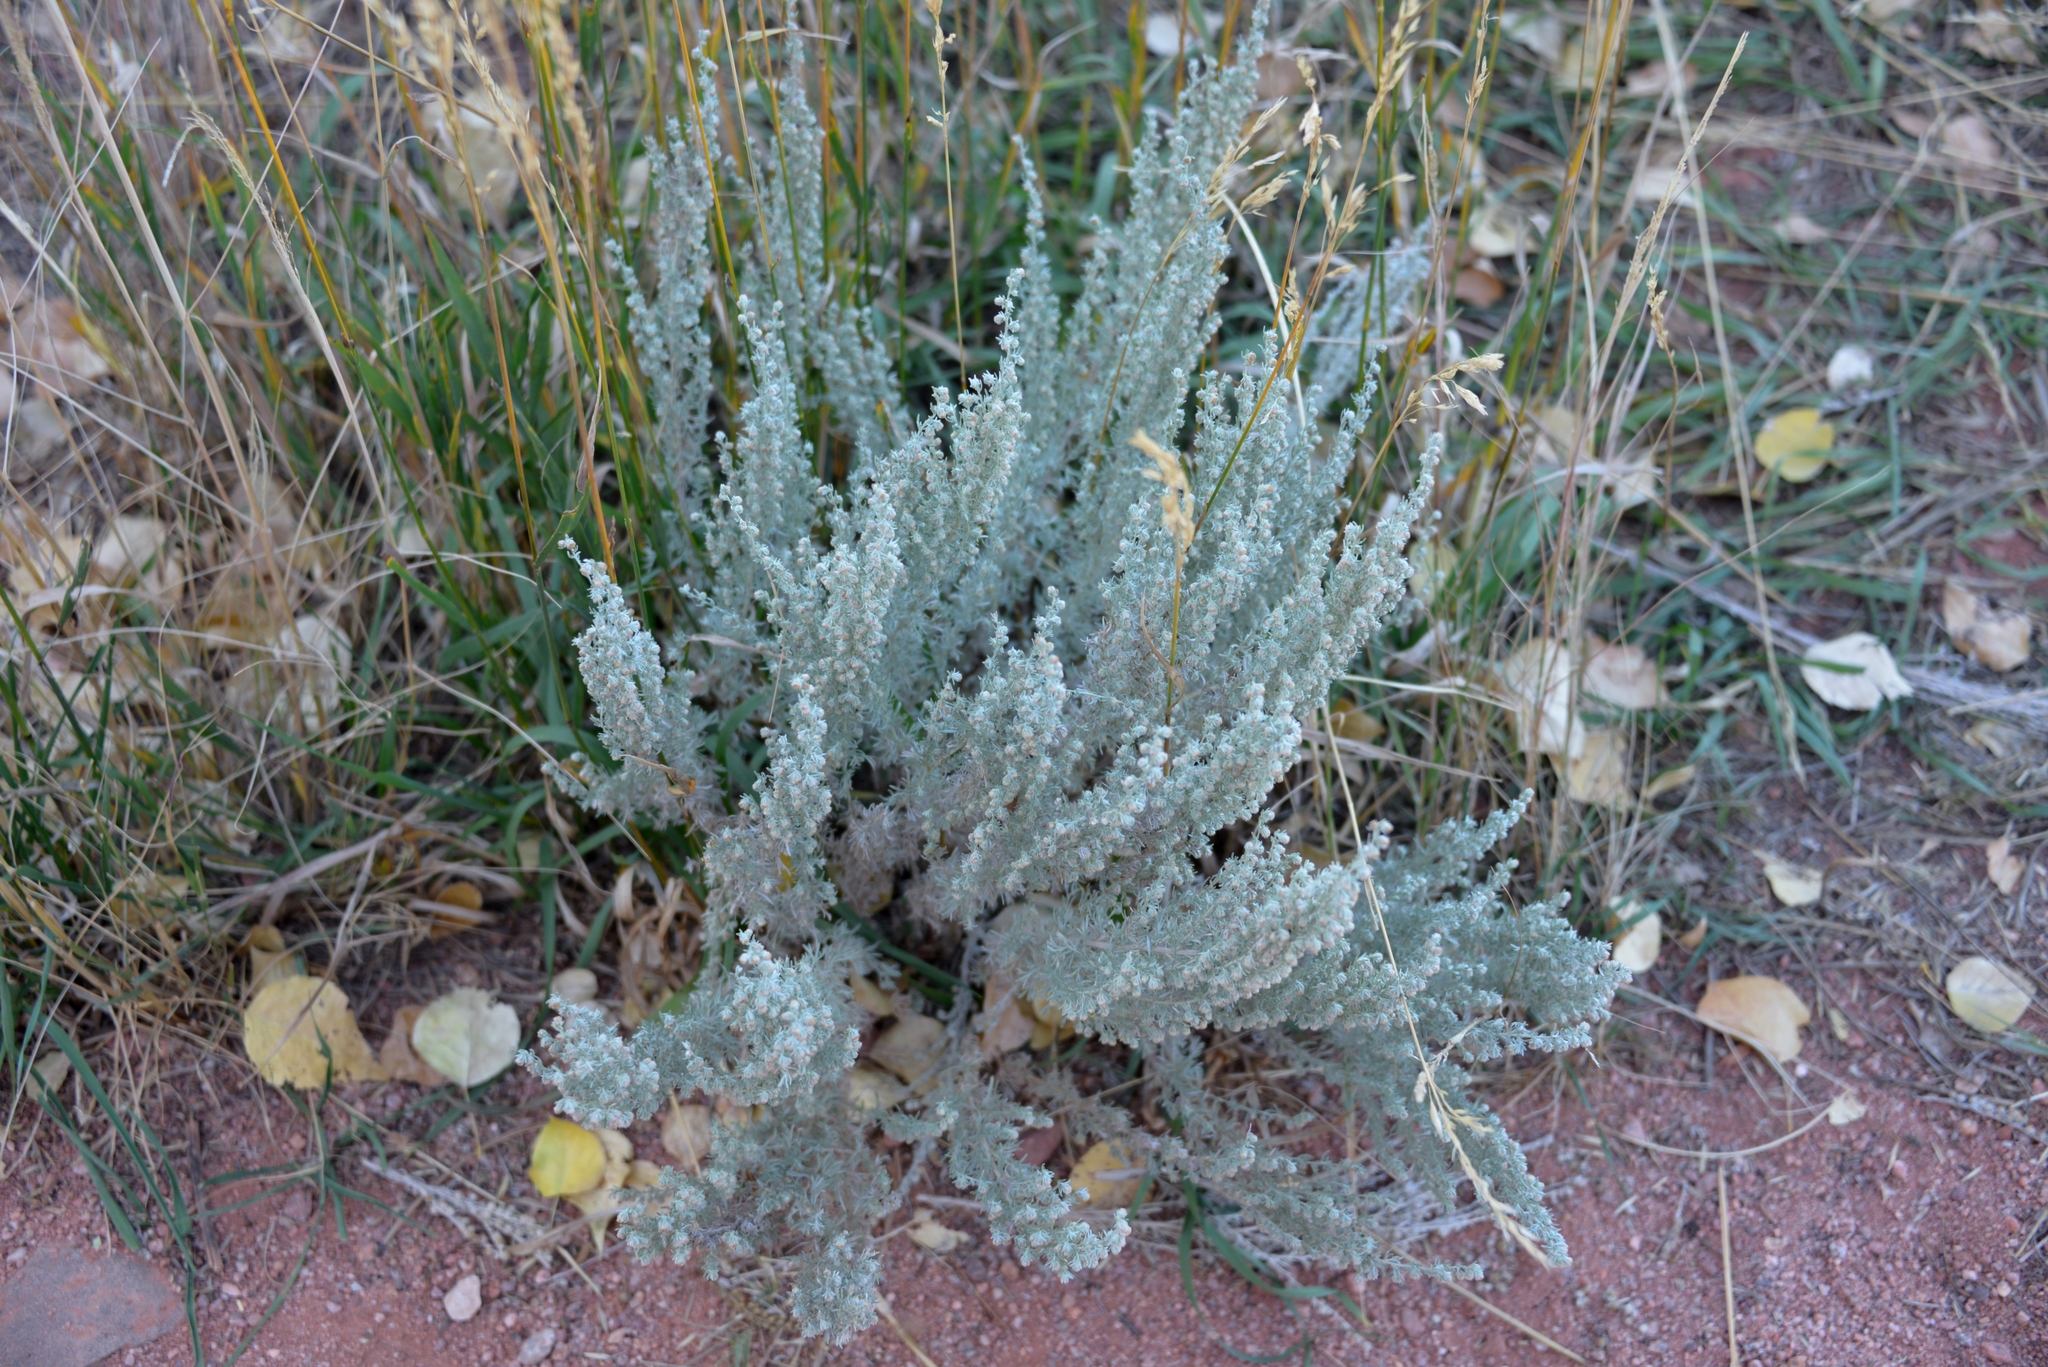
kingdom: Plantae
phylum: Tracheophyta
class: Magnoliopsida
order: Asterales
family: Asteraceae
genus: Artemisia
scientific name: Artemisia frigida
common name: Prairie sagewort
